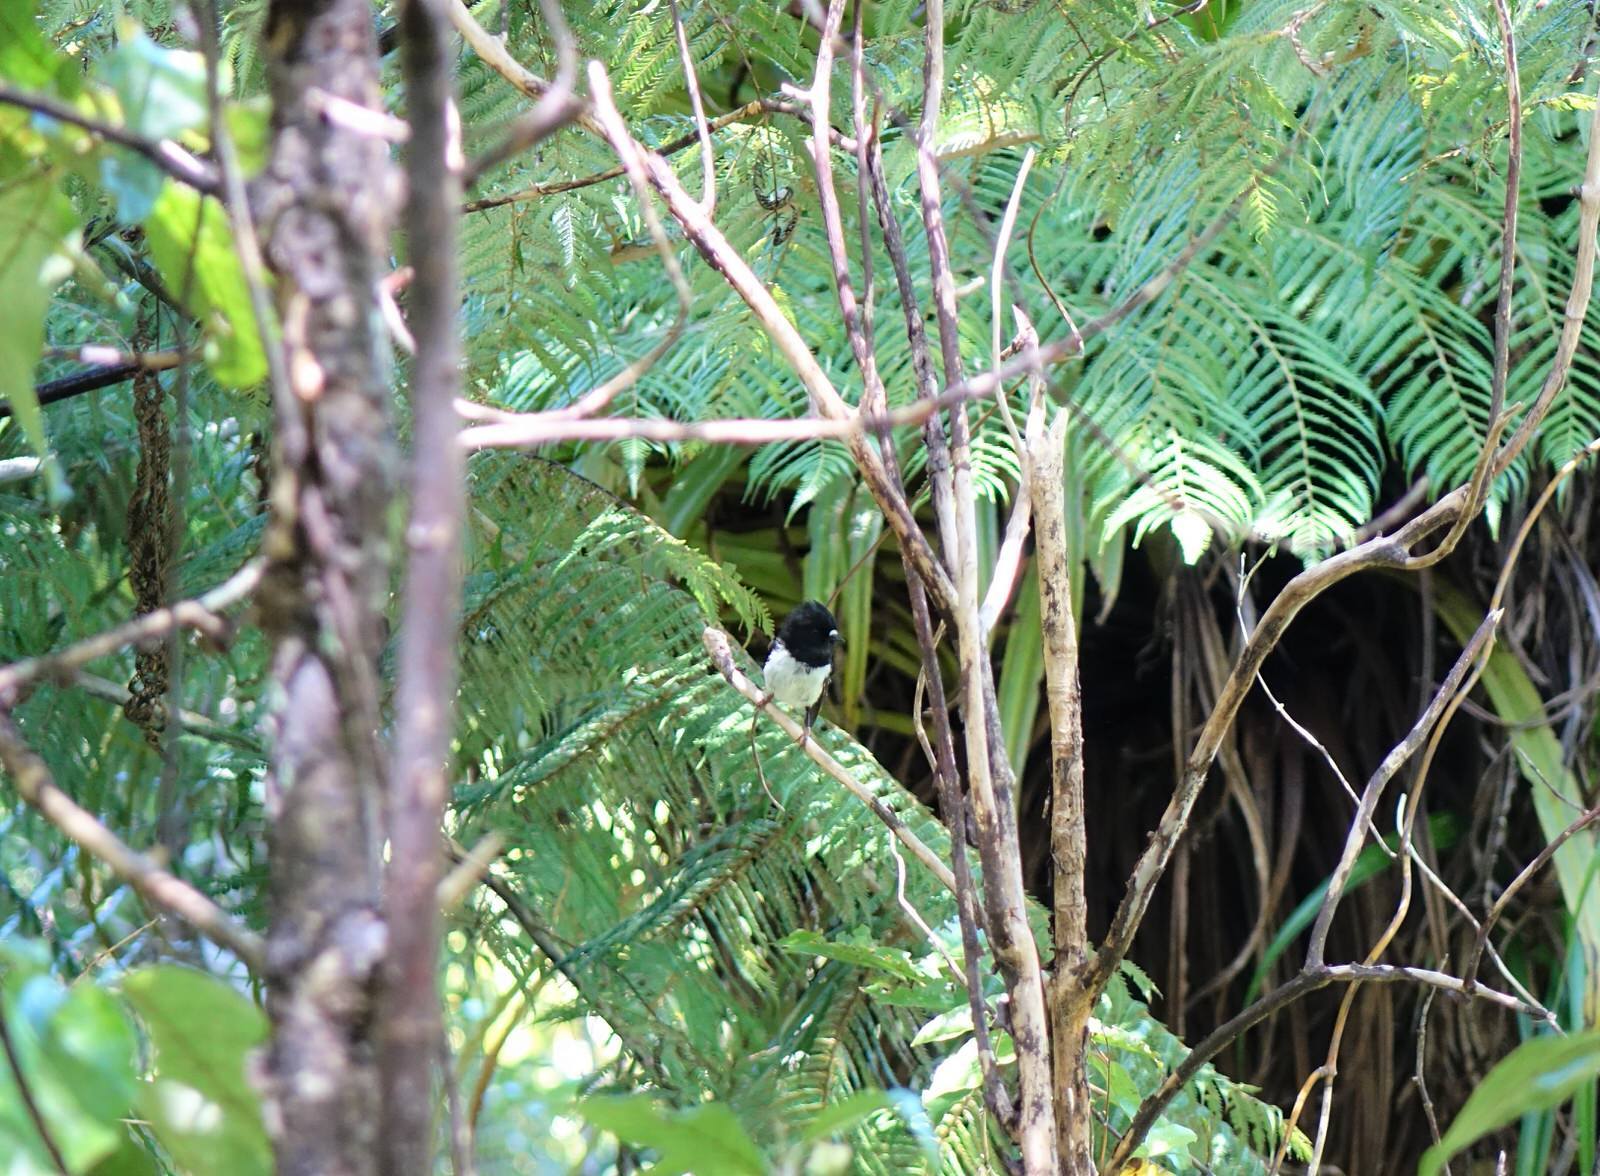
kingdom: Animalia
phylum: Chordata
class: Aves
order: Passeriformes
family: Petroicidae
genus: Petroica
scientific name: Petroica macrocephala
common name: Tomtit
